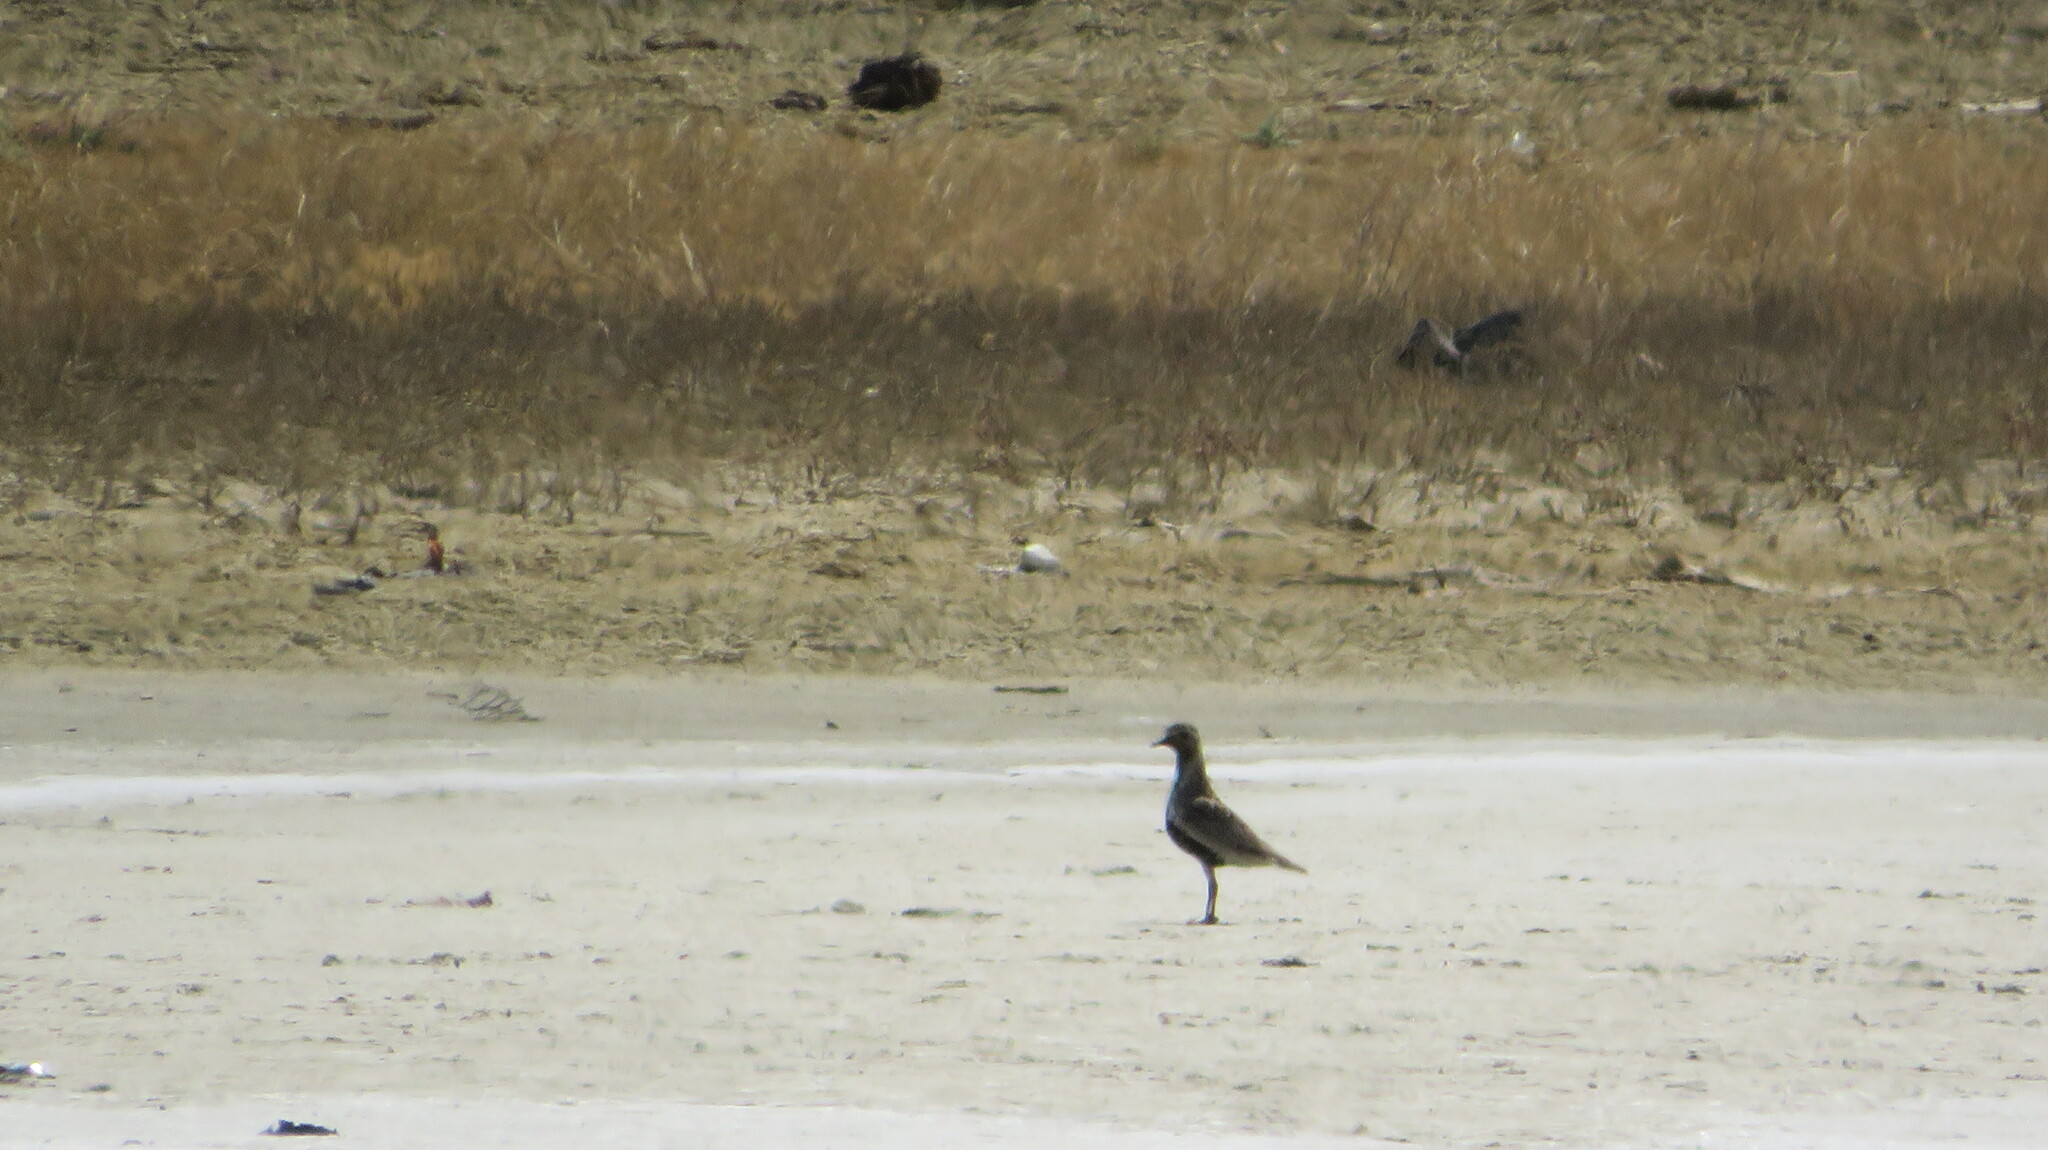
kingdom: Animalia
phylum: Chordata
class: Aves
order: Charadriiformes
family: Charadriidae
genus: Pluvialis
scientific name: Pluvialis apricaria
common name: European golden plover
